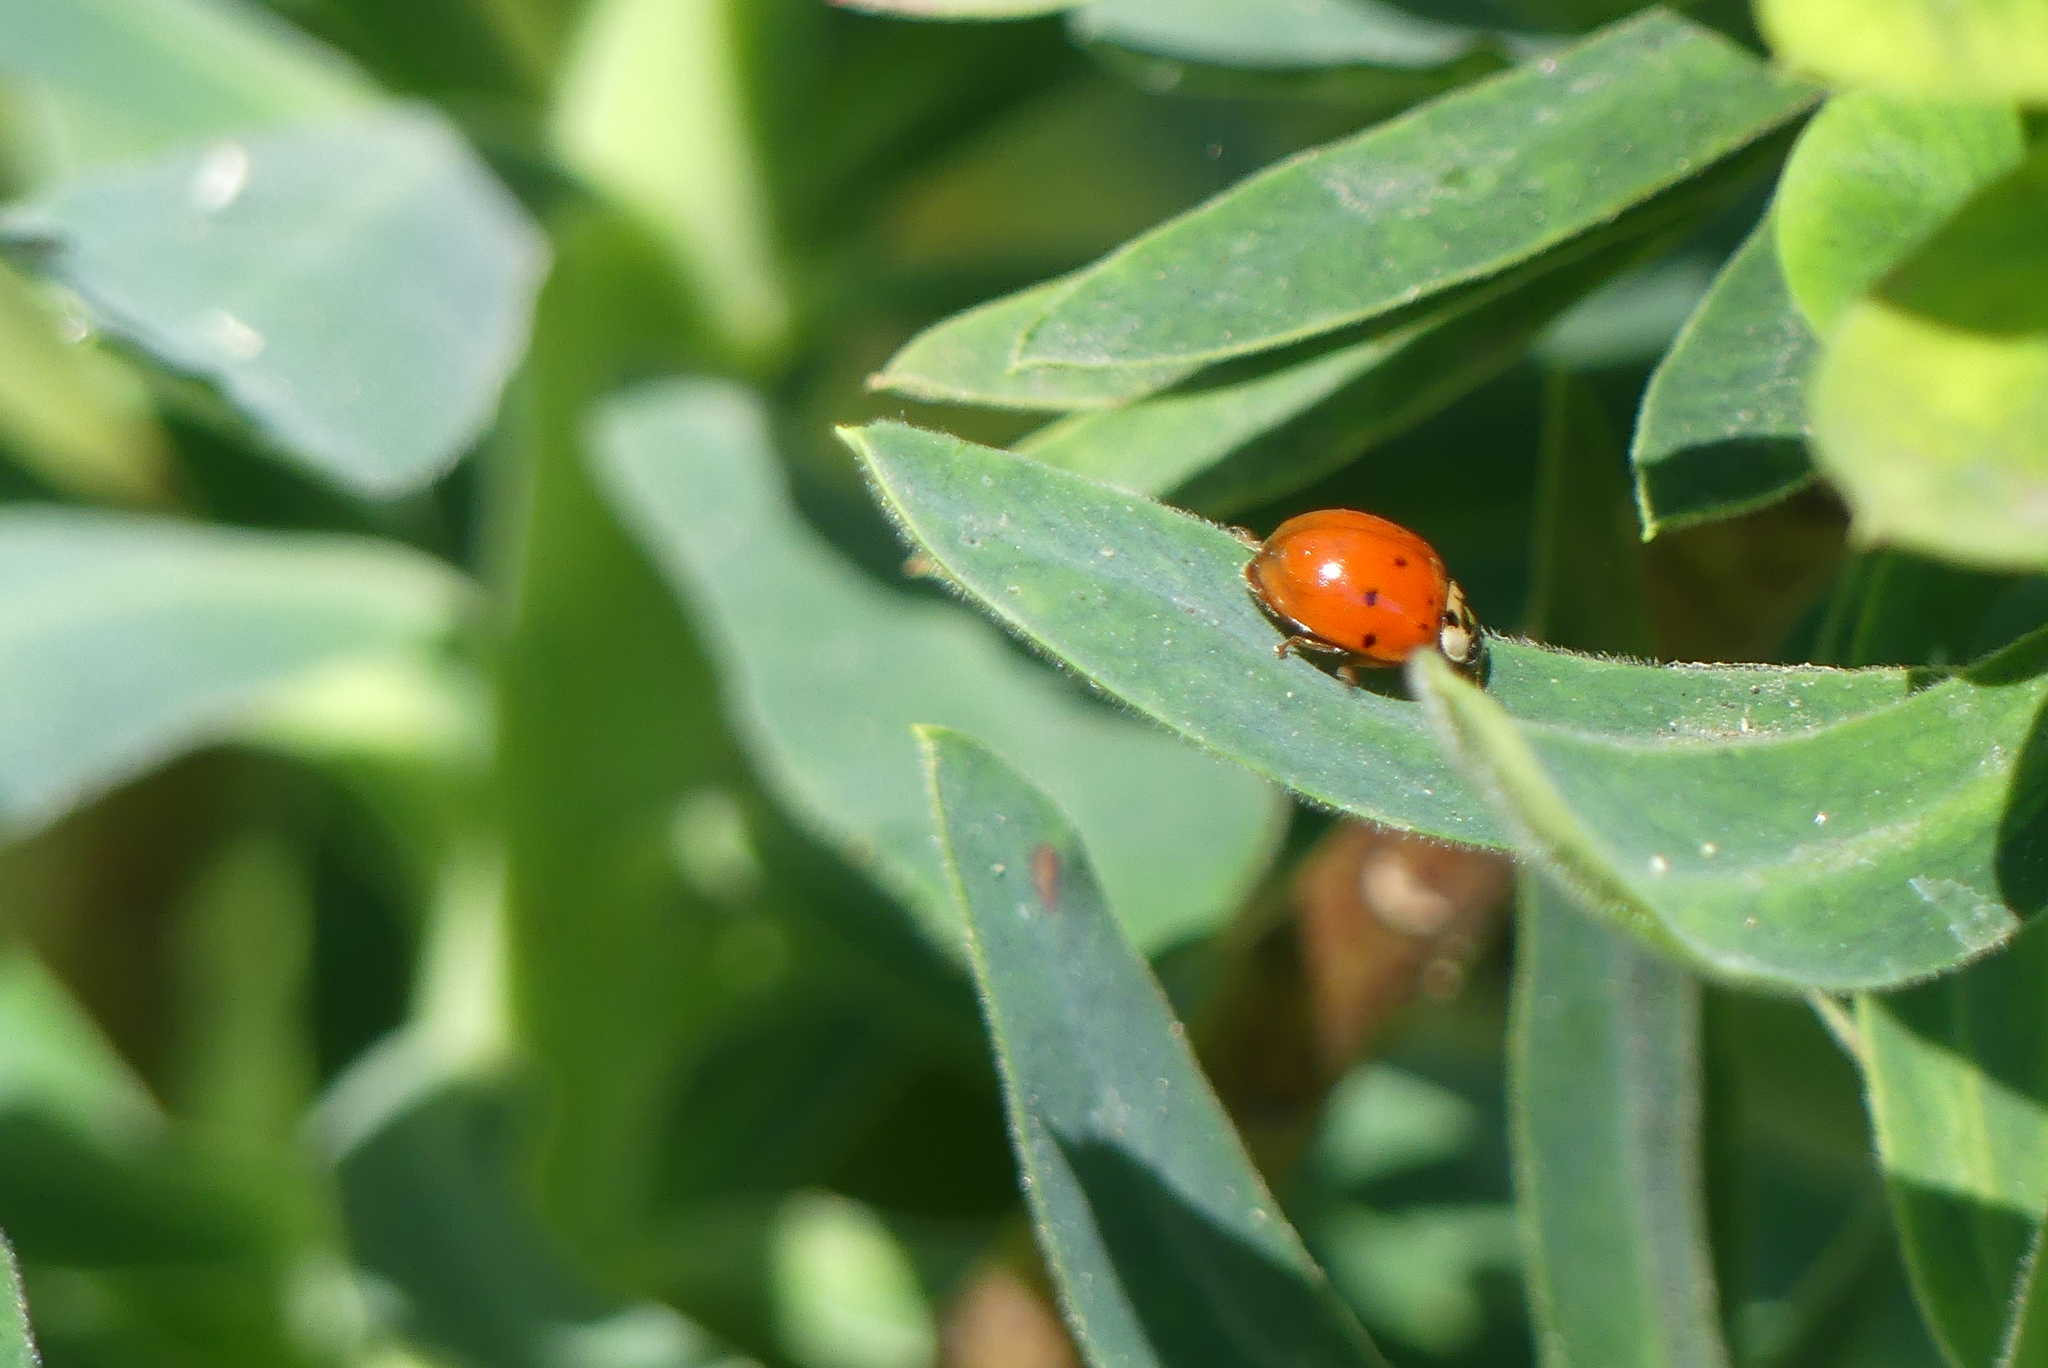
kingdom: Animalia
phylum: Arthropoda
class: Insecta
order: Coleoptera
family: Coccinellidae
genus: Harmonia
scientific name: Harmonia axyridis
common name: Harlequin ladybird
